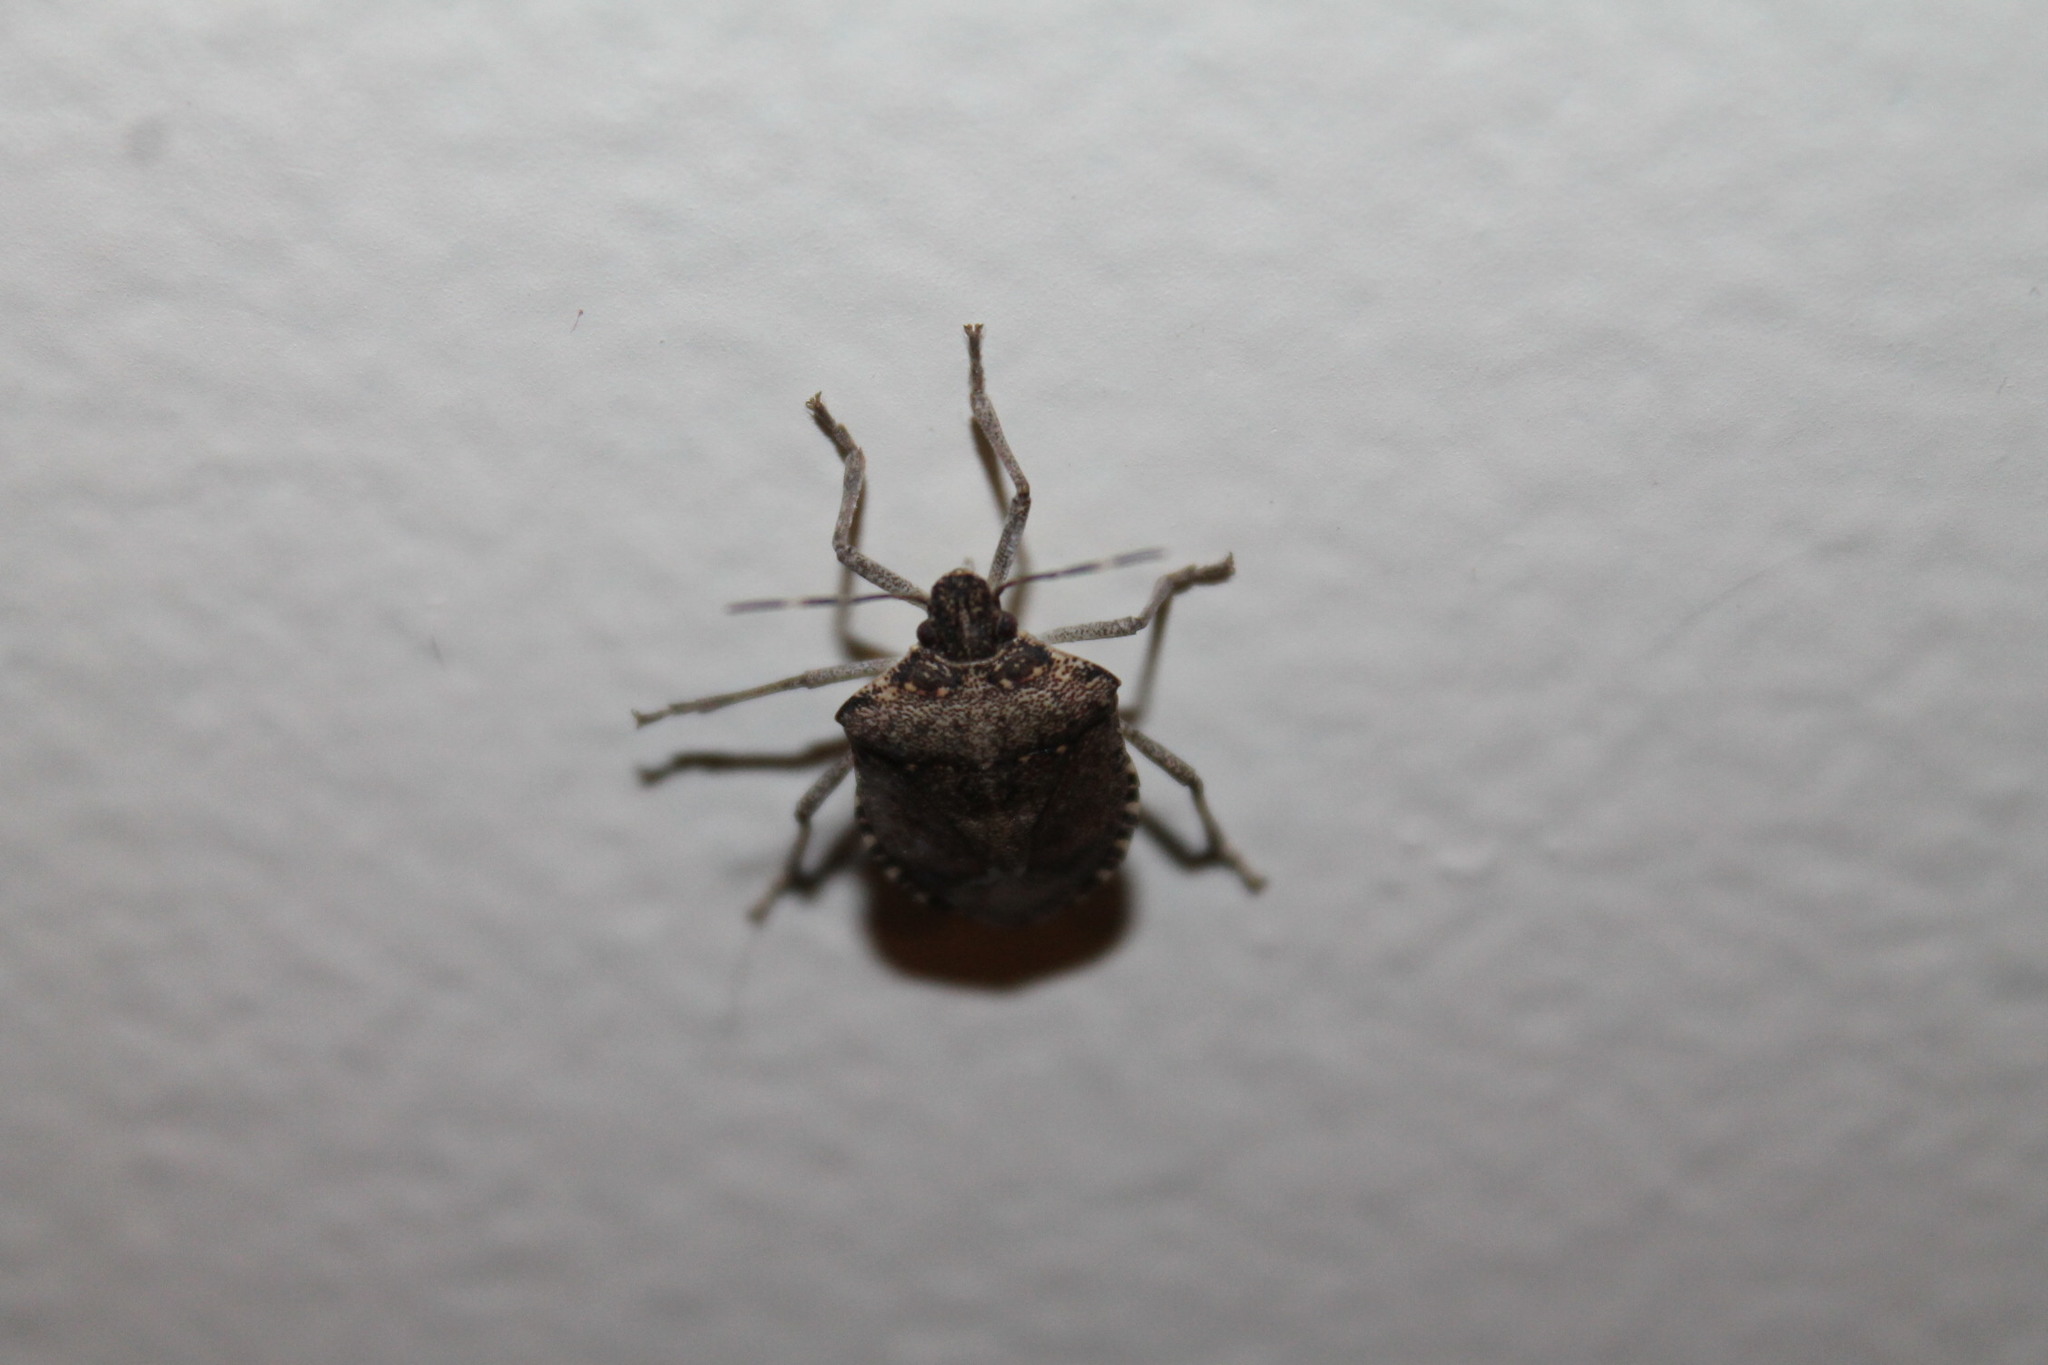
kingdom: Animalia
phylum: Arthropoda
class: Insecta
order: Hemiptera
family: Pentatomidae
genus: Halyomorpha
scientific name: Halyomorpha halys
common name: Brown marmorated stink bug
